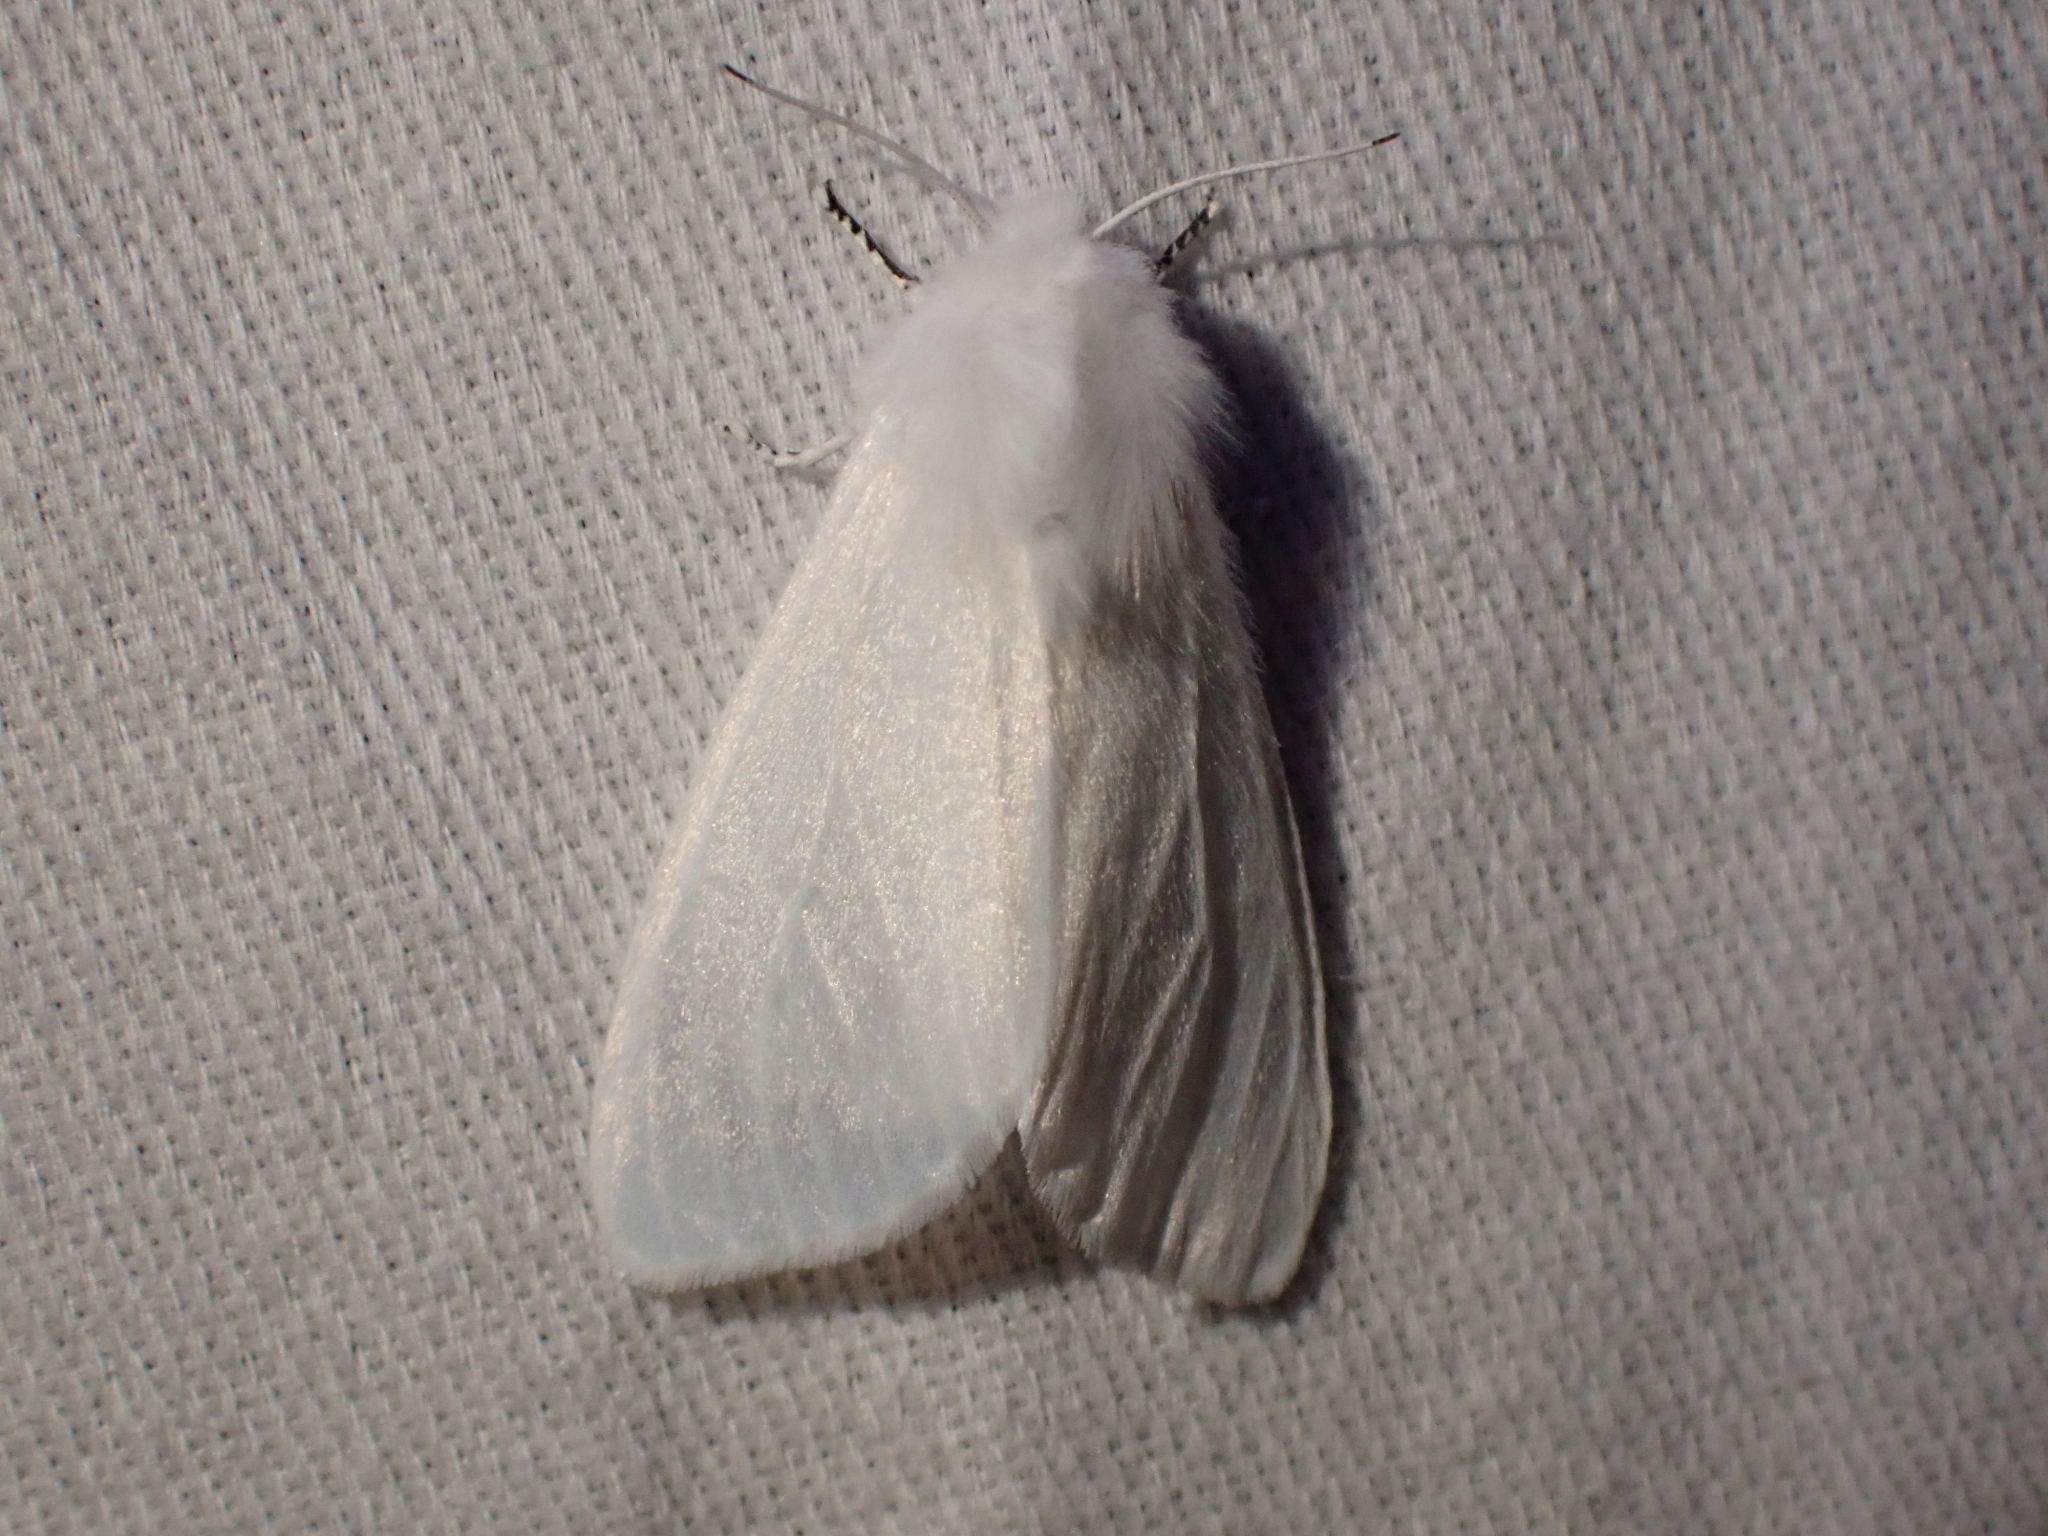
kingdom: Animalia
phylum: Arthropoda
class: Insecta
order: Lepidoptera
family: Erebidae
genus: Hyphantria
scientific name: Hyphantria cunea
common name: American white moth
